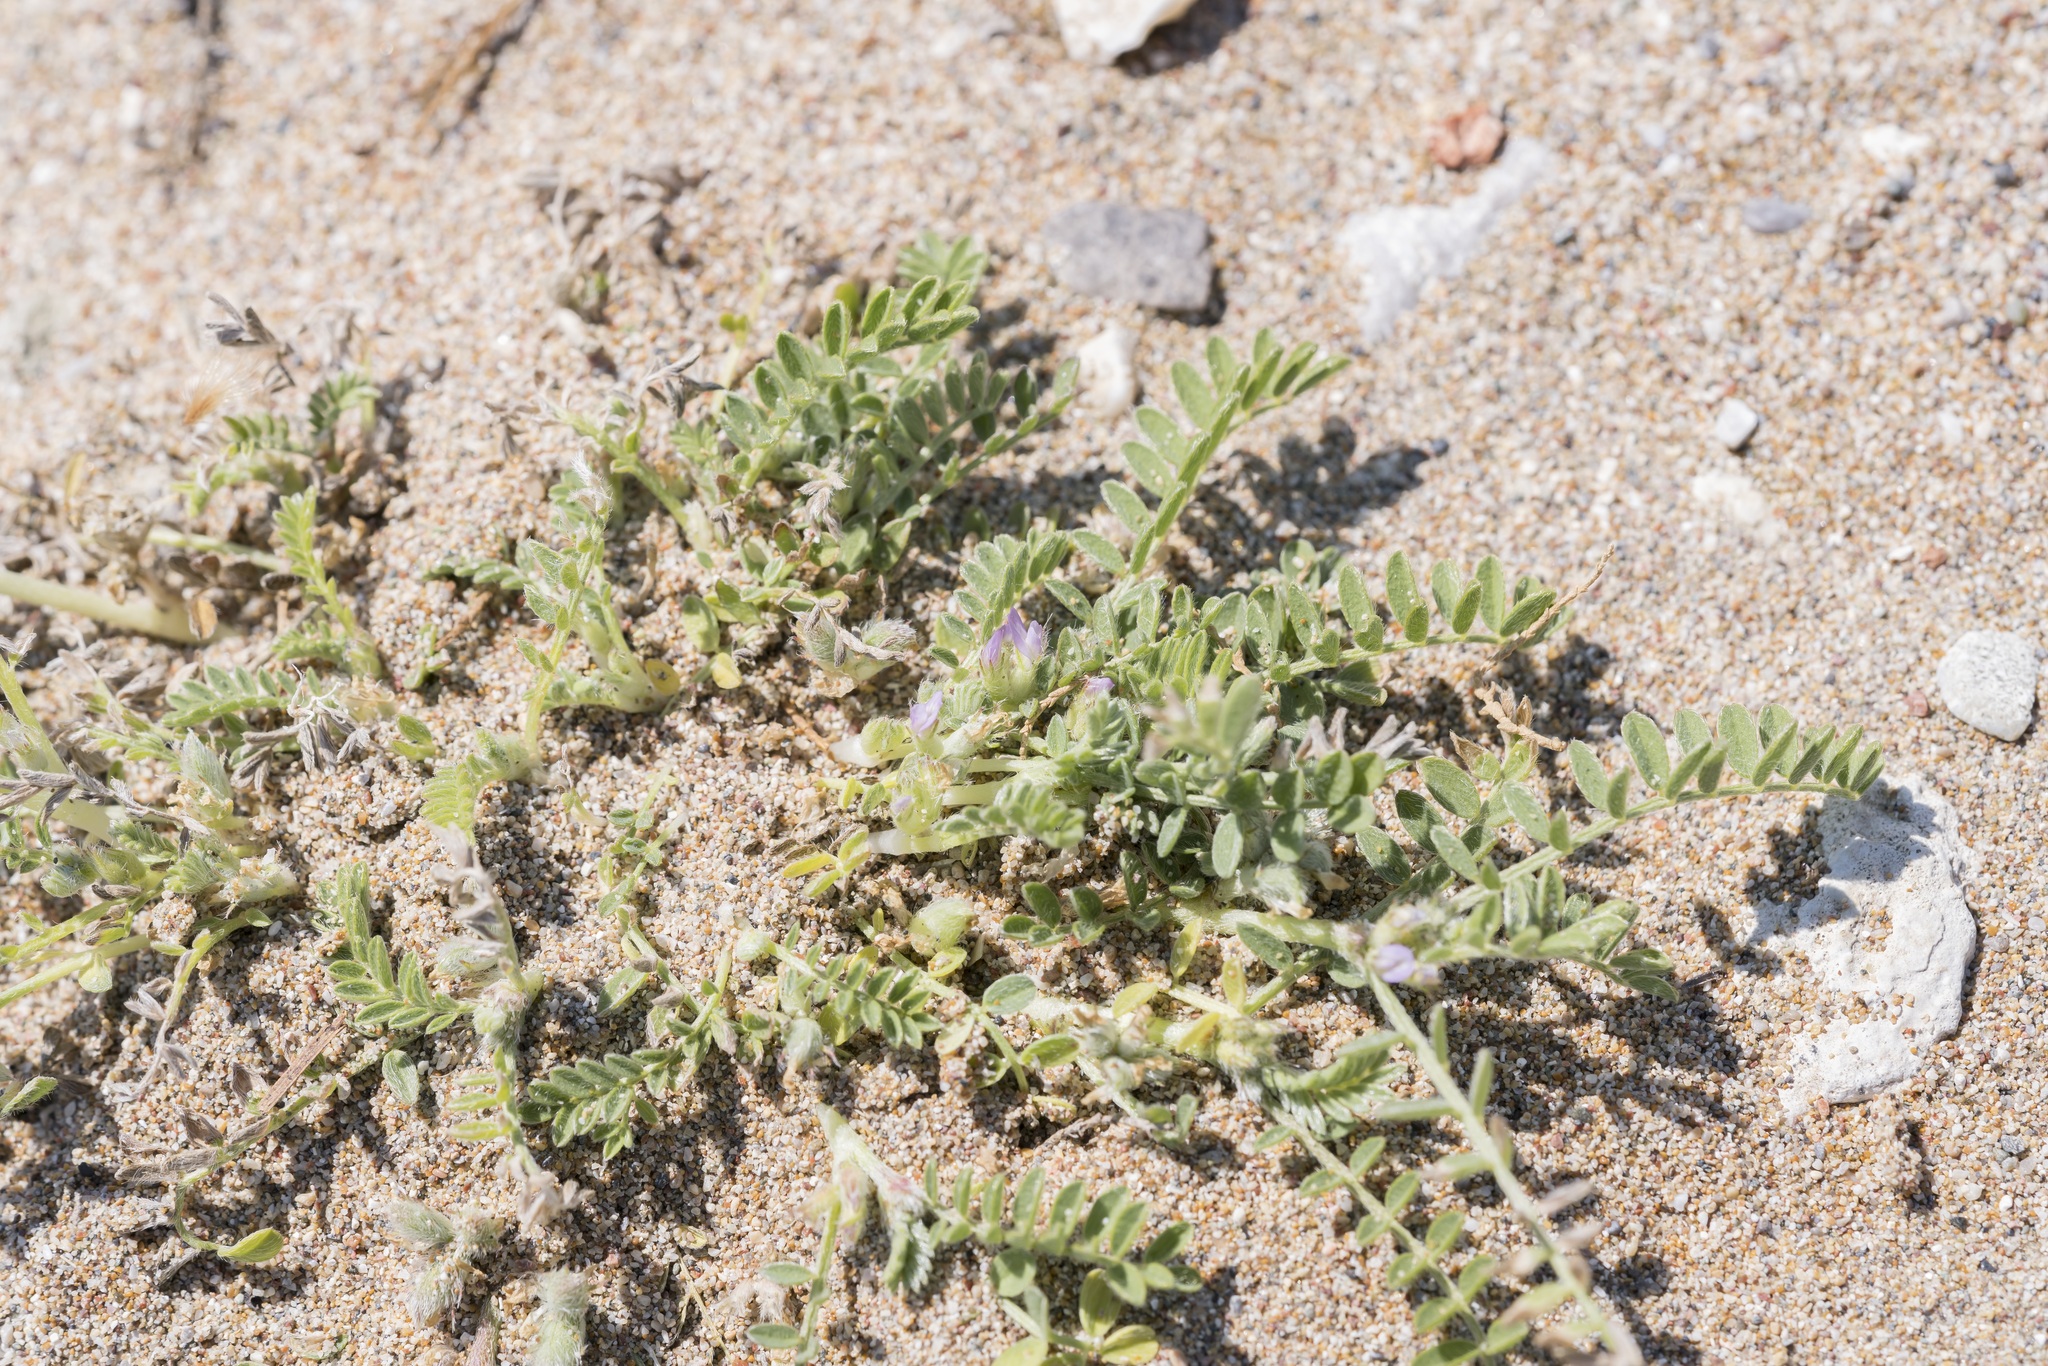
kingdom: Plantae
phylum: Tracheophyta
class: Magnoliopsida
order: Fabales
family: Fabaceae
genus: Astragalus
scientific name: Astragalus sinaicus
